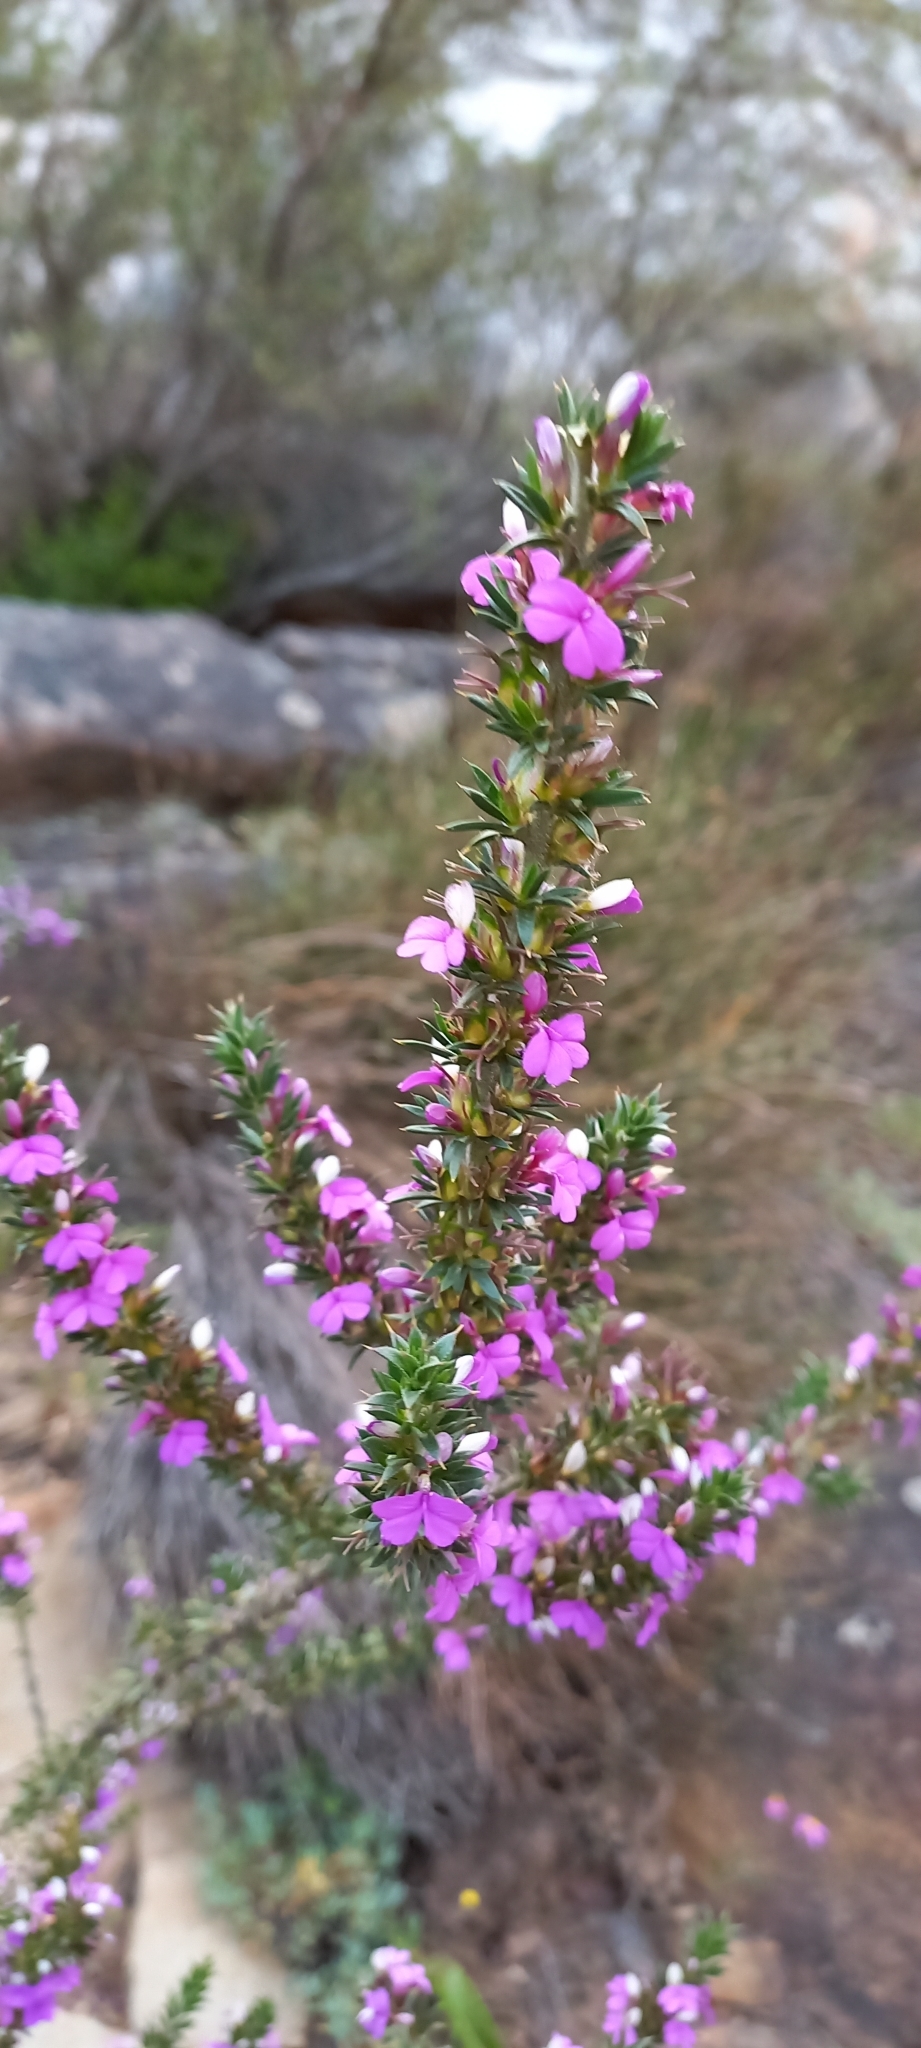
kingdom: Plantae
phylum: Tracheophyta
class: Magnoliopsida
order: Fabales
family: Polygalaceae
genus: Muraltia
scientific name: Muraltia heisteria
